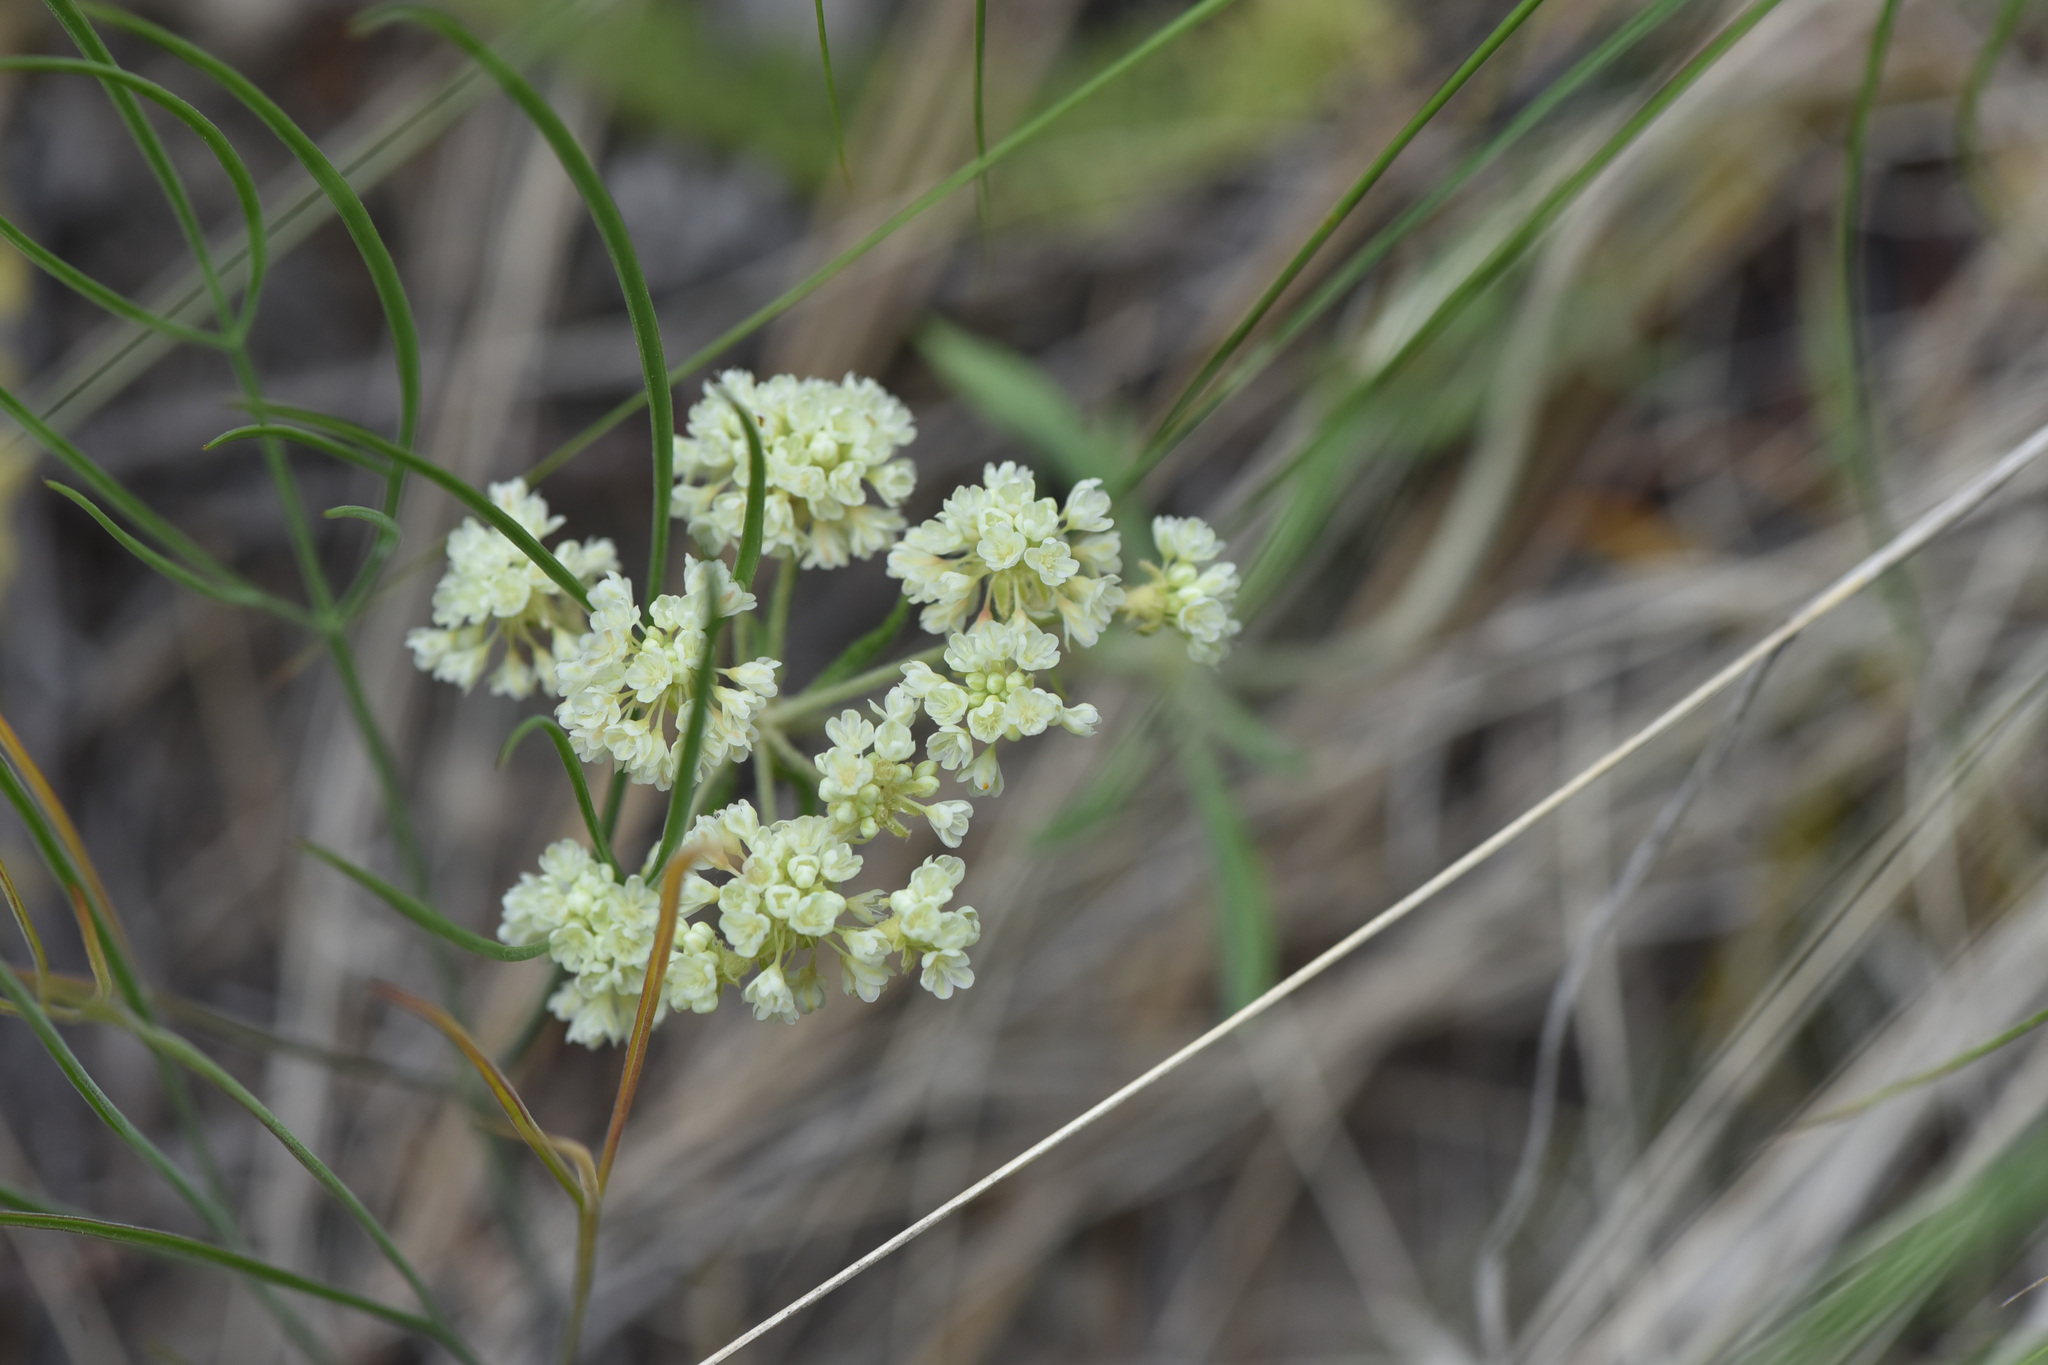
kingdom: Plantae
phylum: Tracheophyta
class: Magnoliopsida
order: Caryophyllales
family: Polygonaceae
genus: Eriogonum
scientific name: Eriogonum heracleoides
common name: Wyeth's buckwheat
